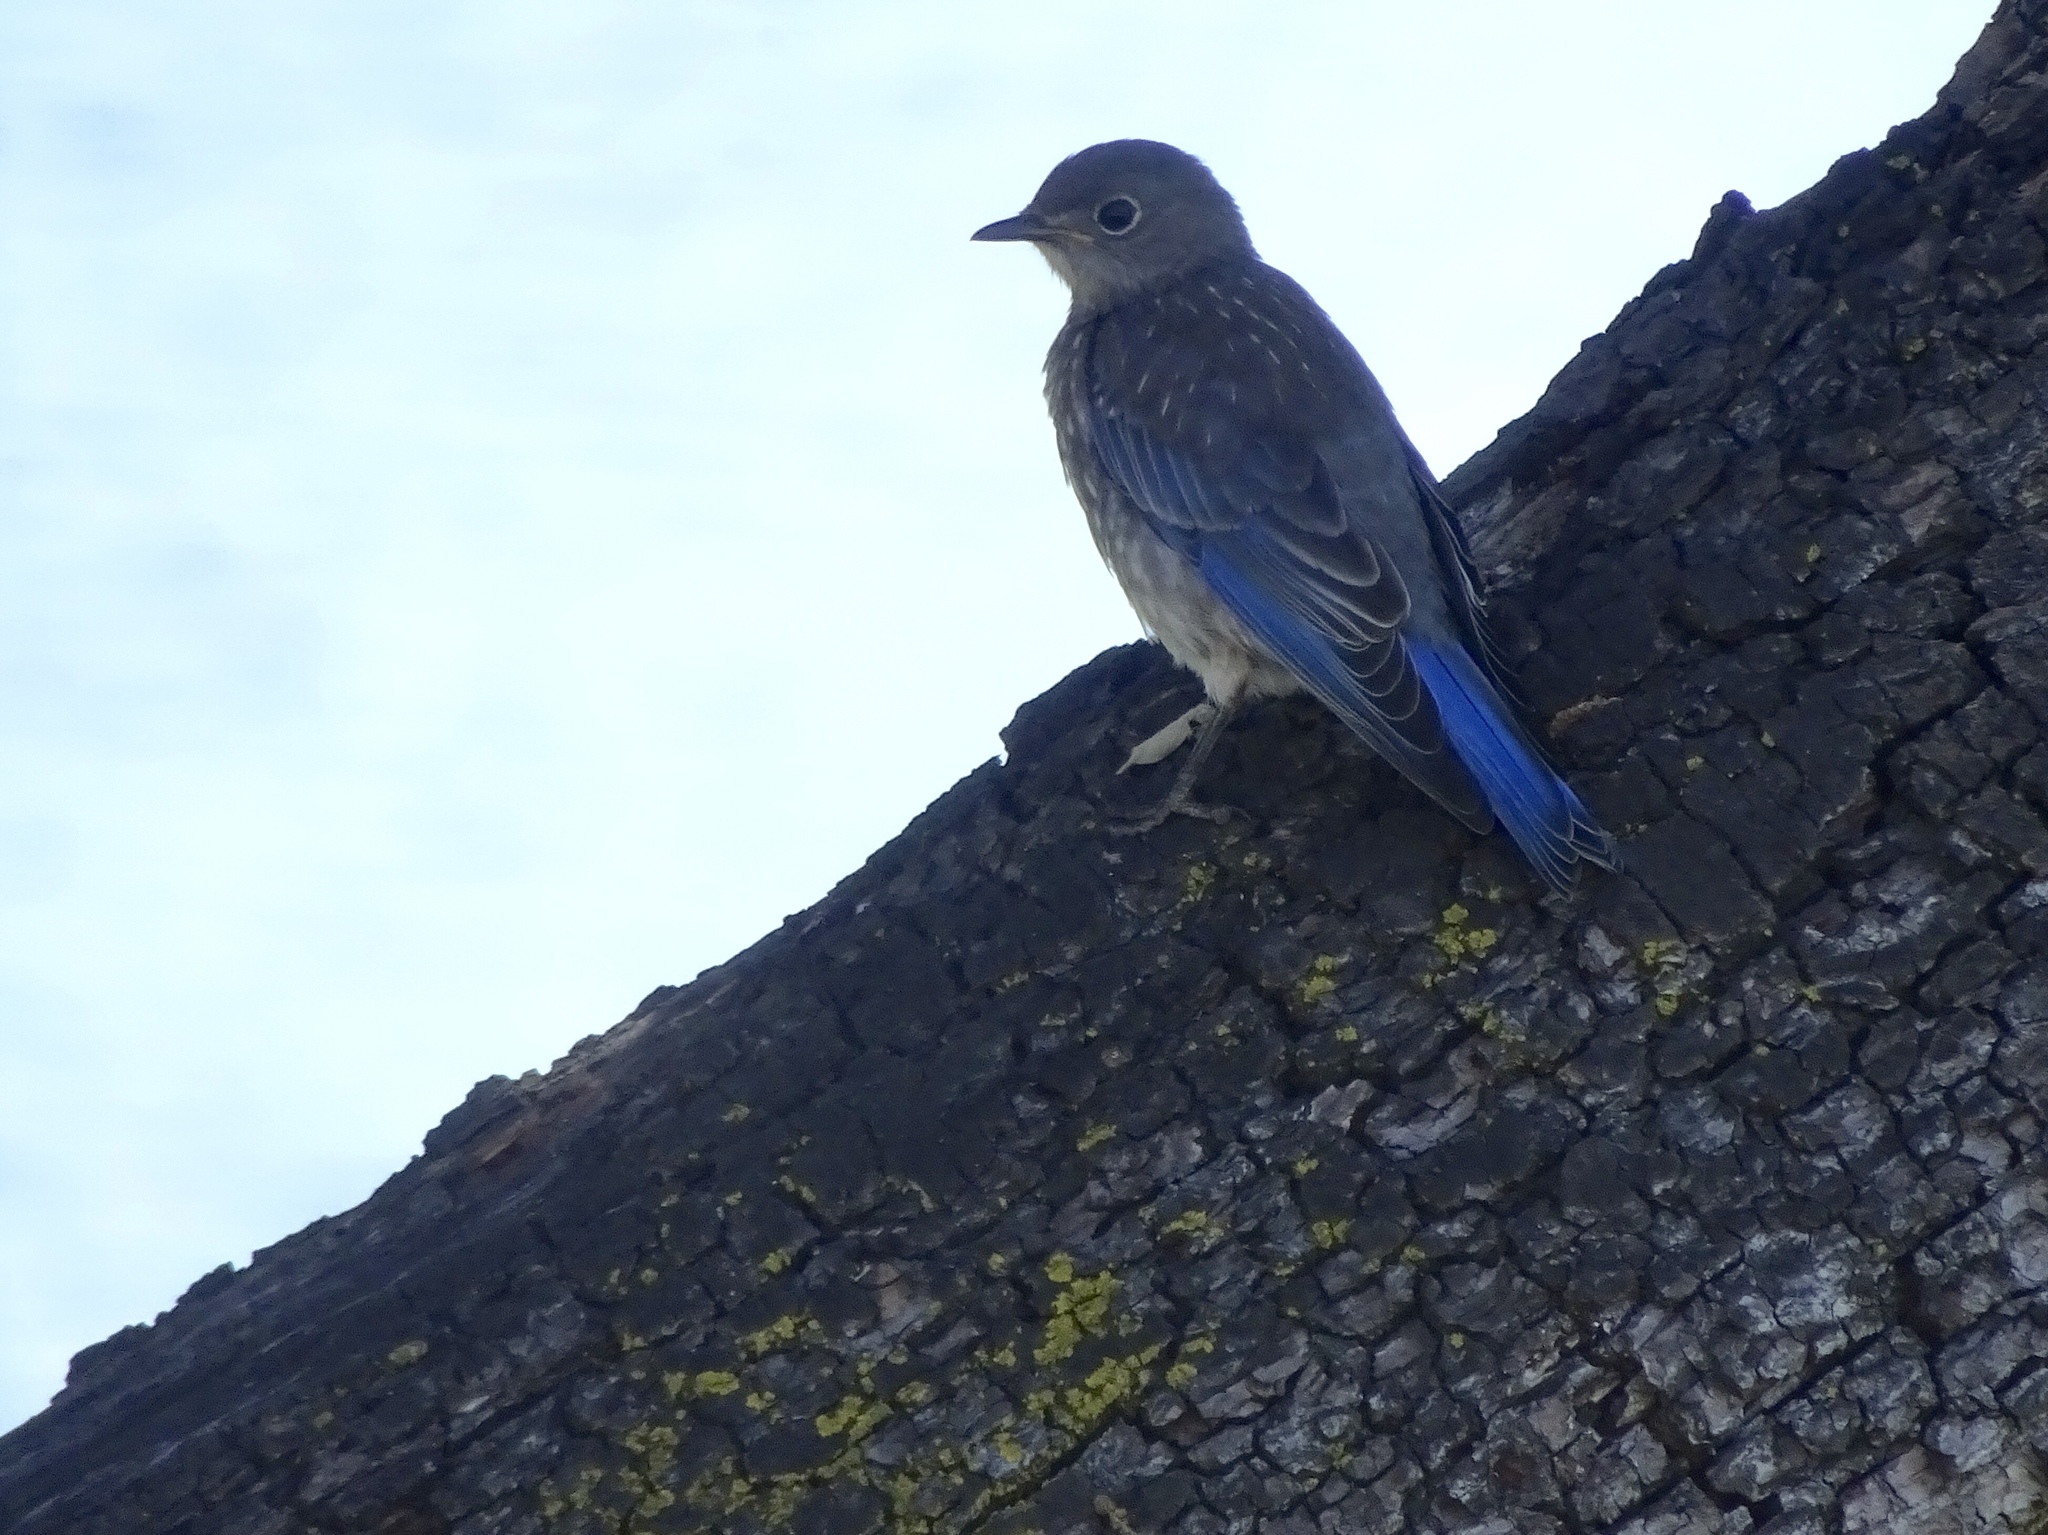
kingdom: Animalia
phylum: Chordata
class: Aves
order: Passeriformes
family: Turdidae
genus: Sialia
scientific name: Sialia mexicana
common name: Western bluebird
